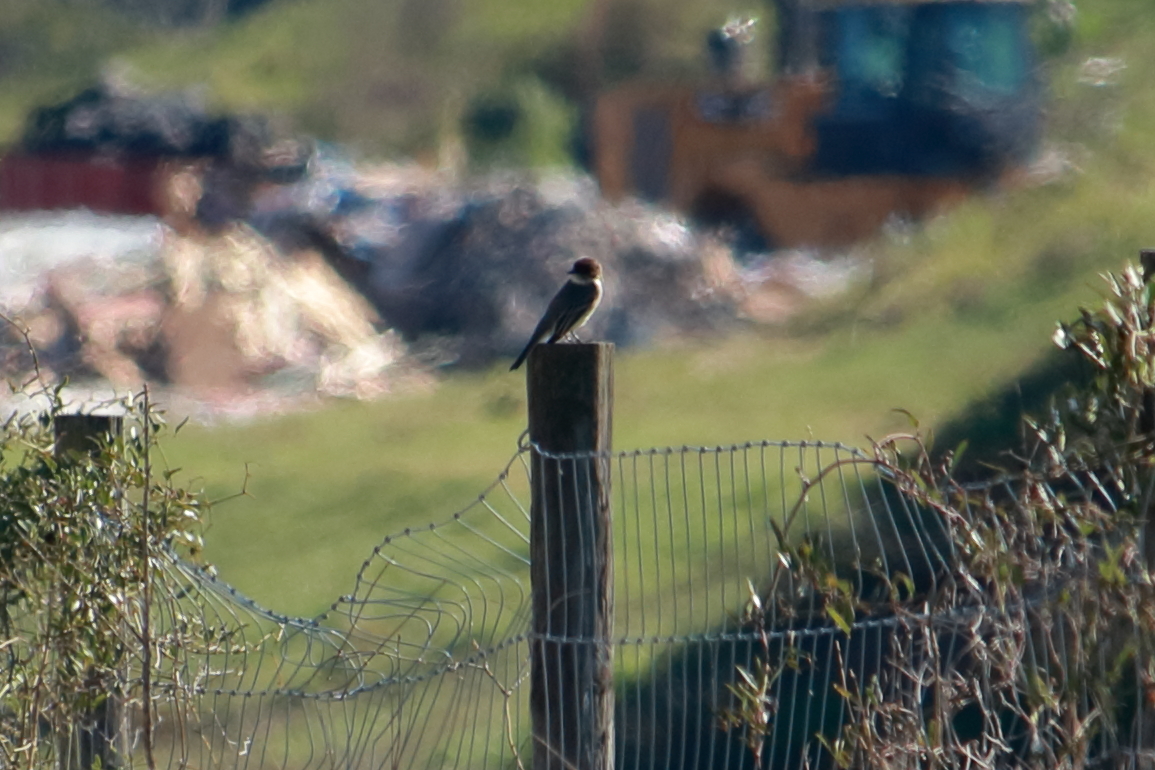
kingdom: Animalia
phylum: Chordata
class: Aves
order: Passeriformes
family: Tyrannidae
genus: Sayornis
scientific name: Sayornis phoebe
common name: Eastern phoebe
